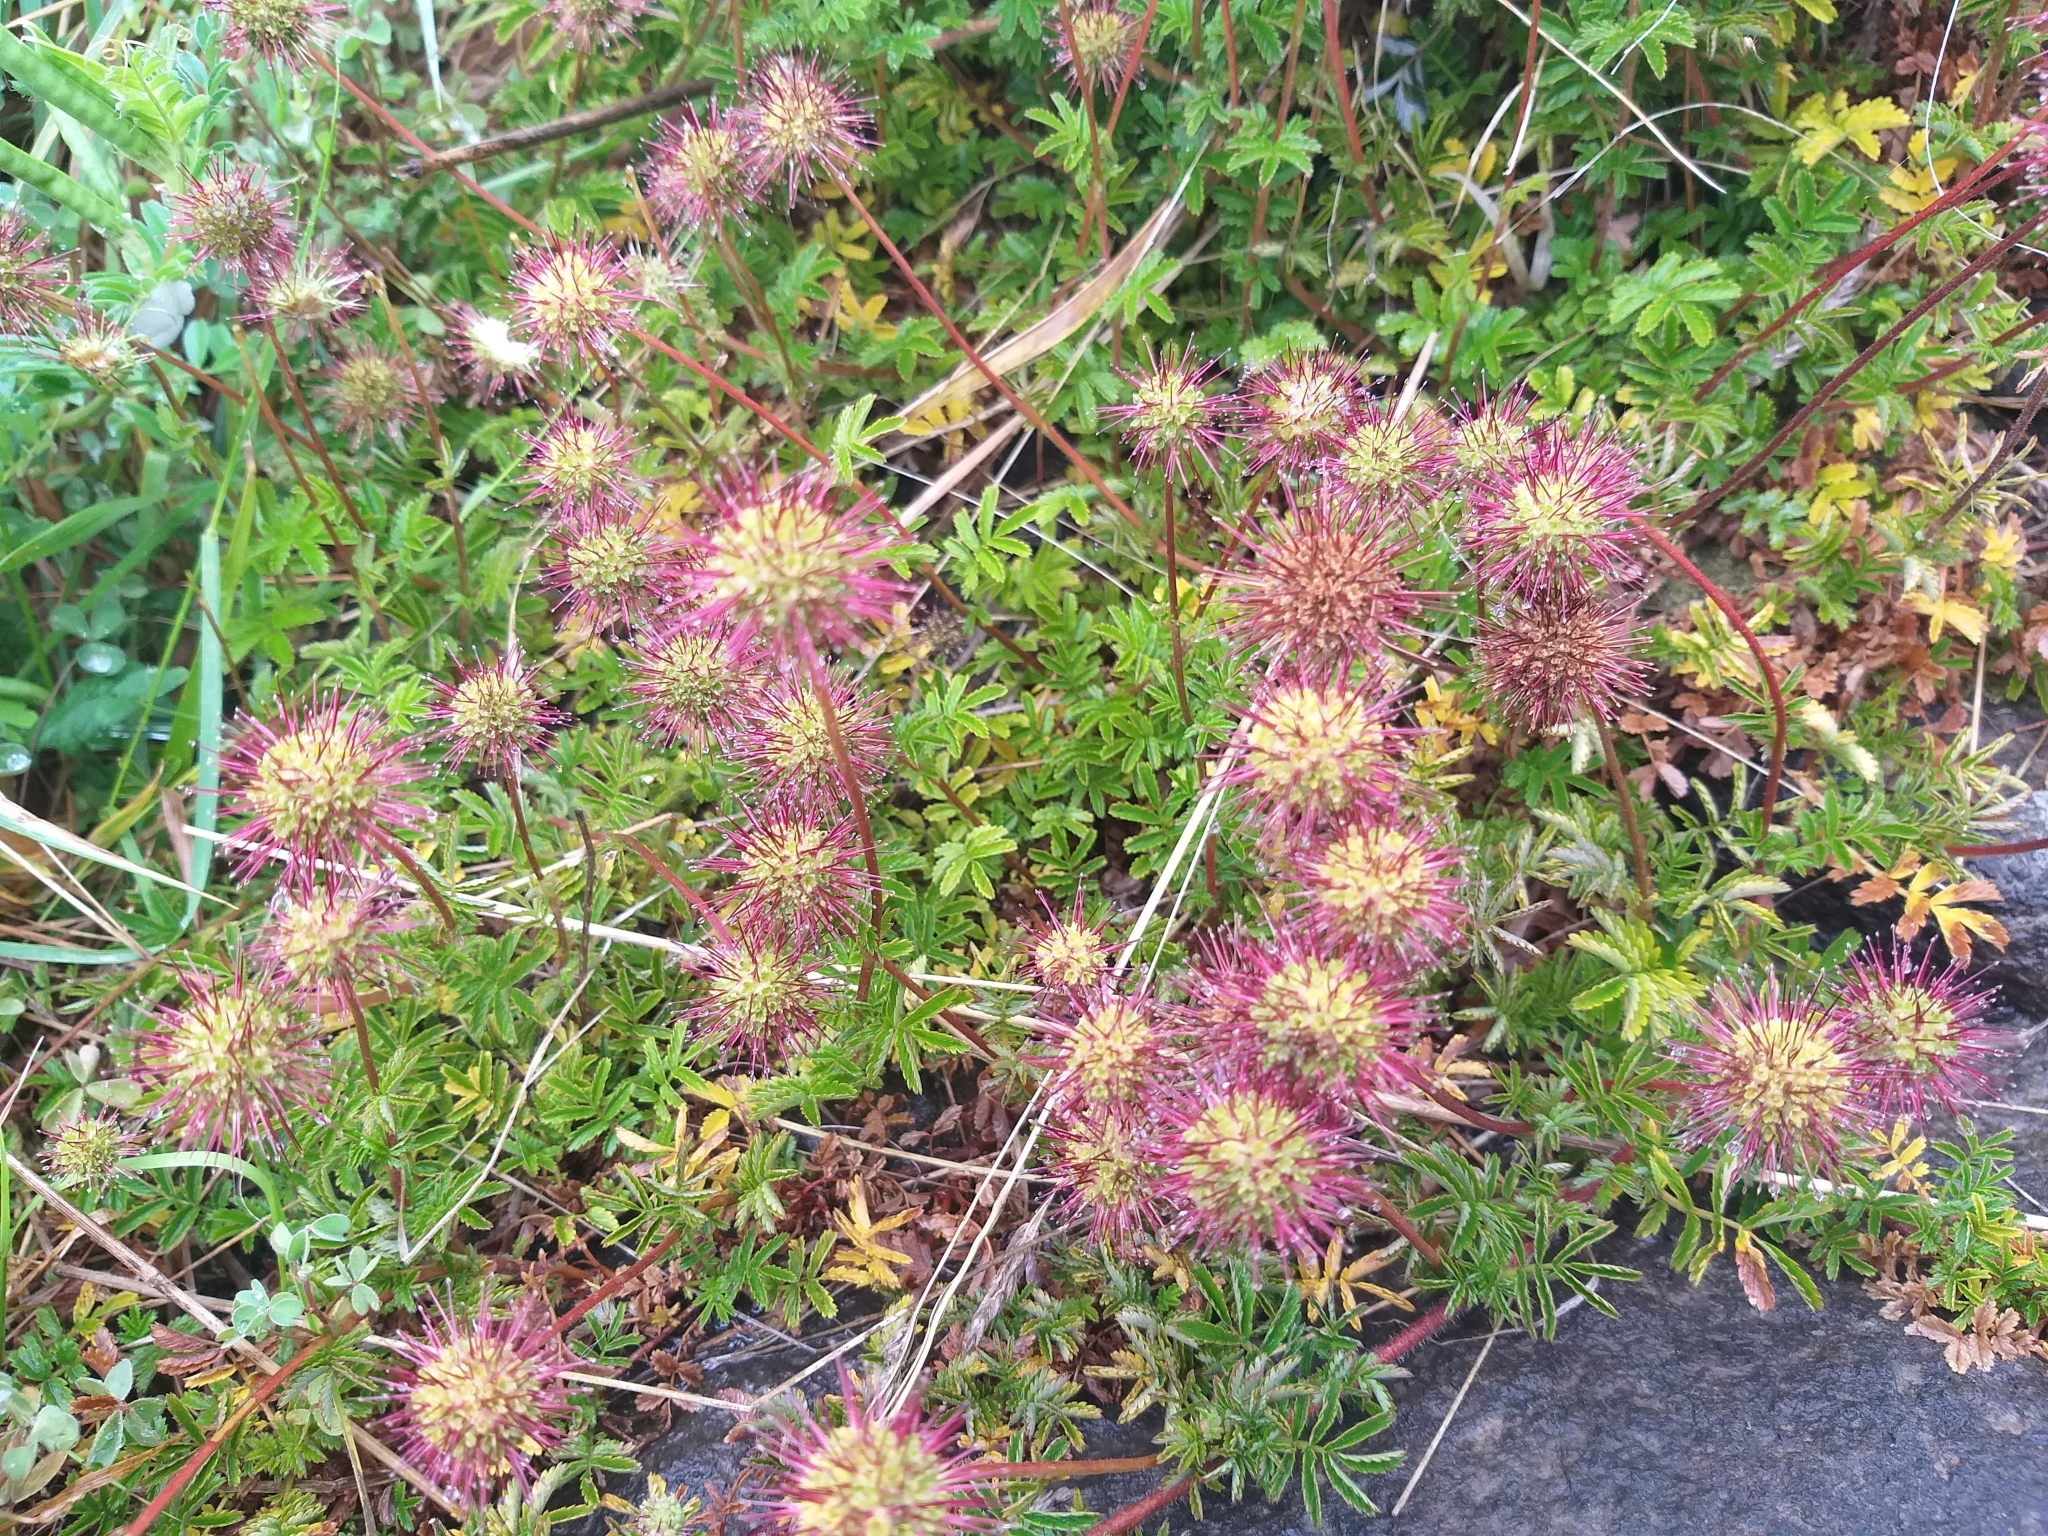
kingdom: Plantae
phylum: Tracheophyta
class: Magnoliopsida
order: Rosales
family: Rosaceae
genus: Acaena
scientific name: Acaena novae-zelandiae
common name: Pirri-pirri-bur
